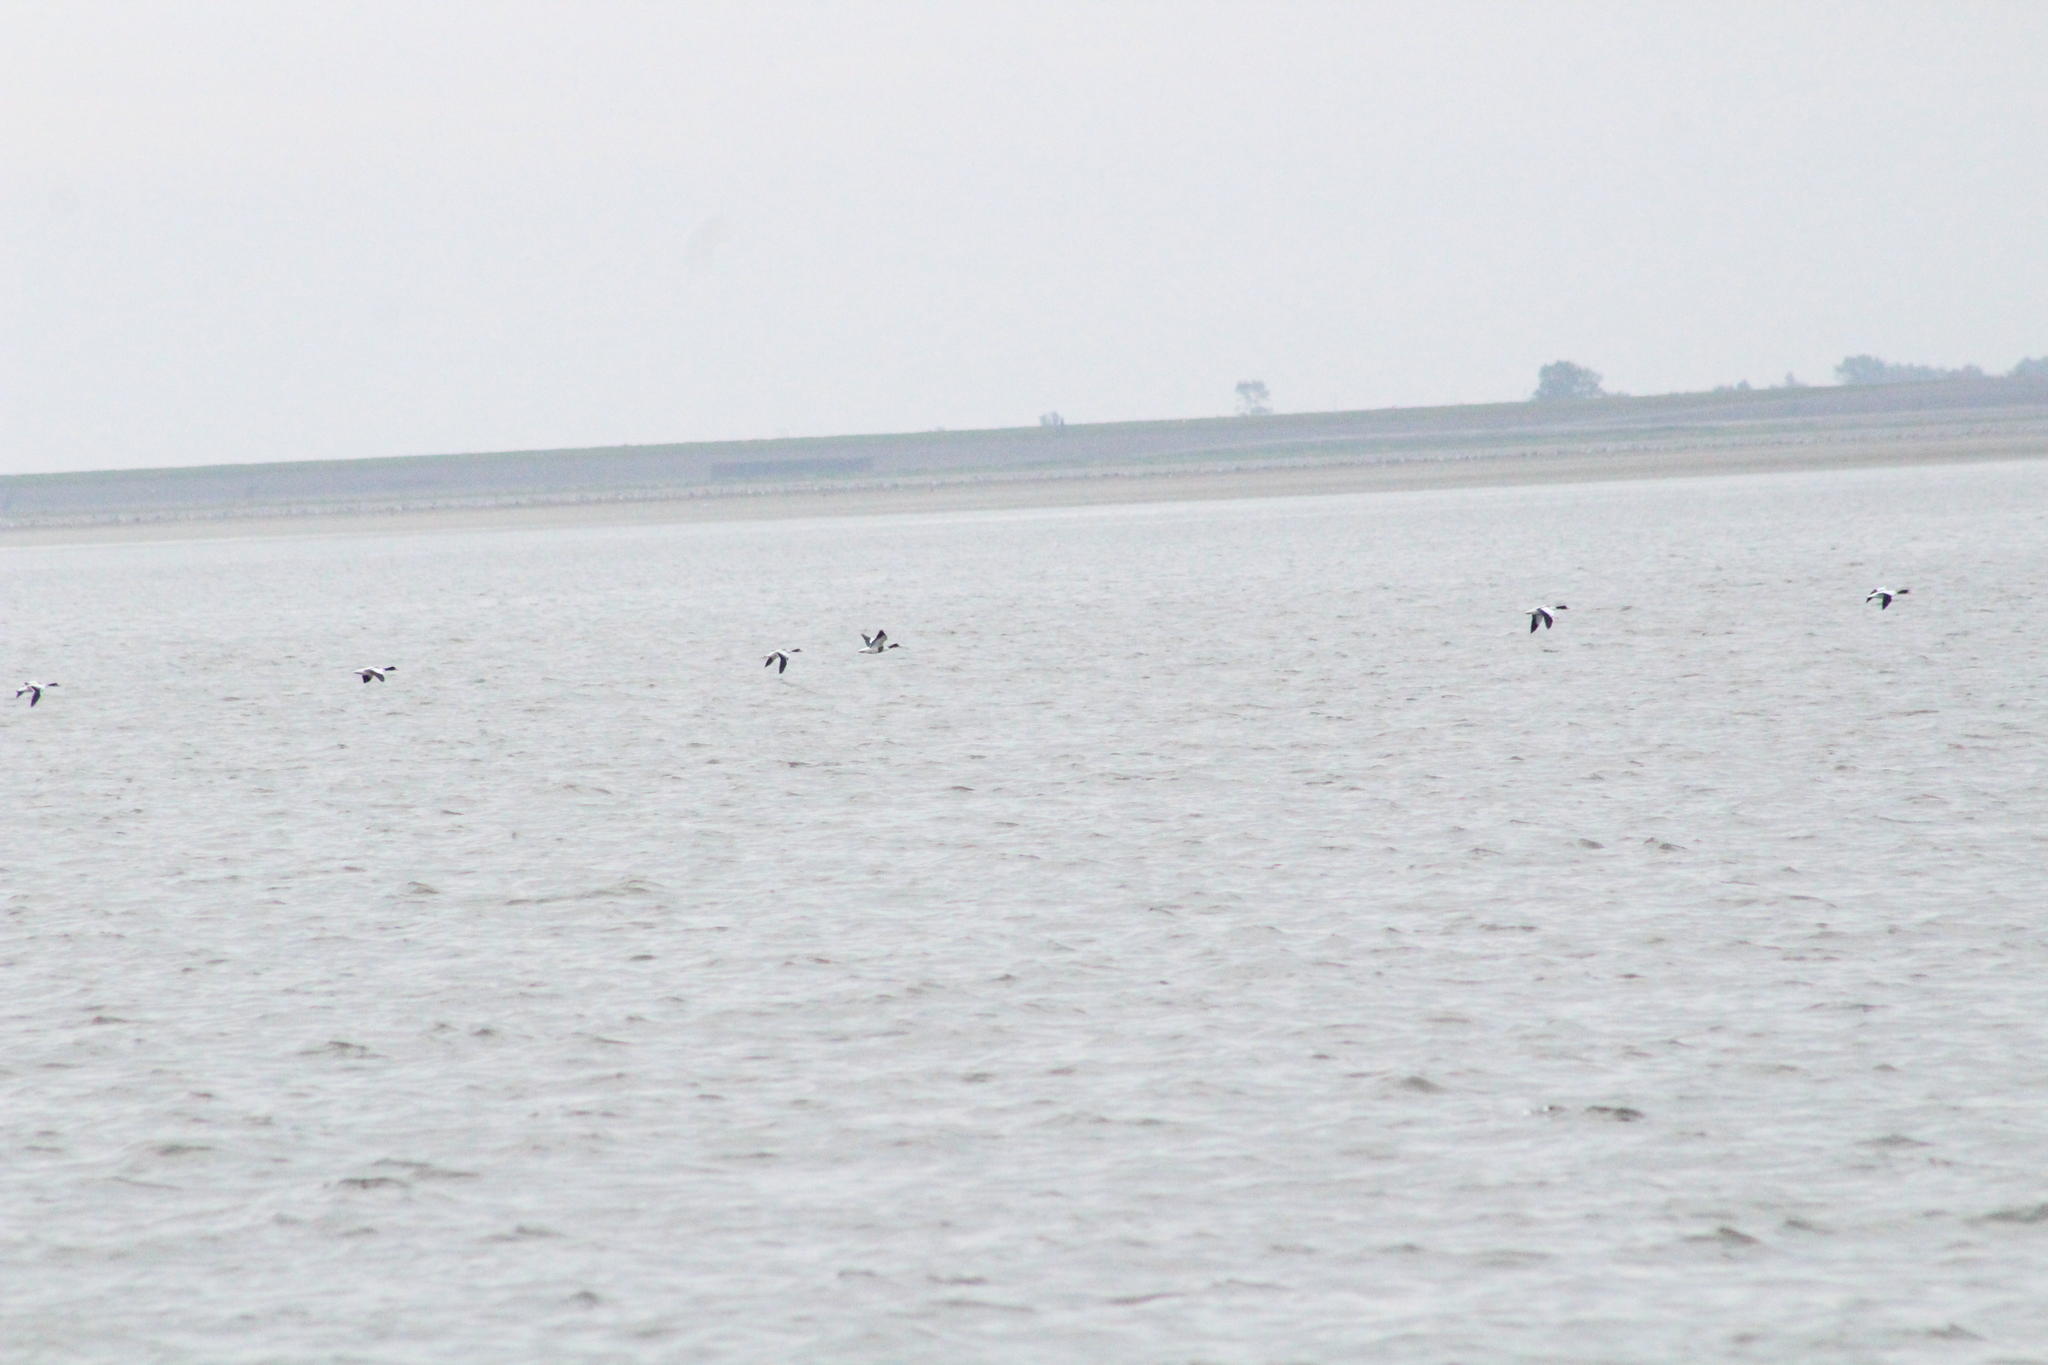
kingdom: Animalia
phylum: Chordata
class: Aves
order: Anseriformes
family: Anatidae
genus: Tadorna
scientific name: Tadorna tadorna
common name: Common shelduck
